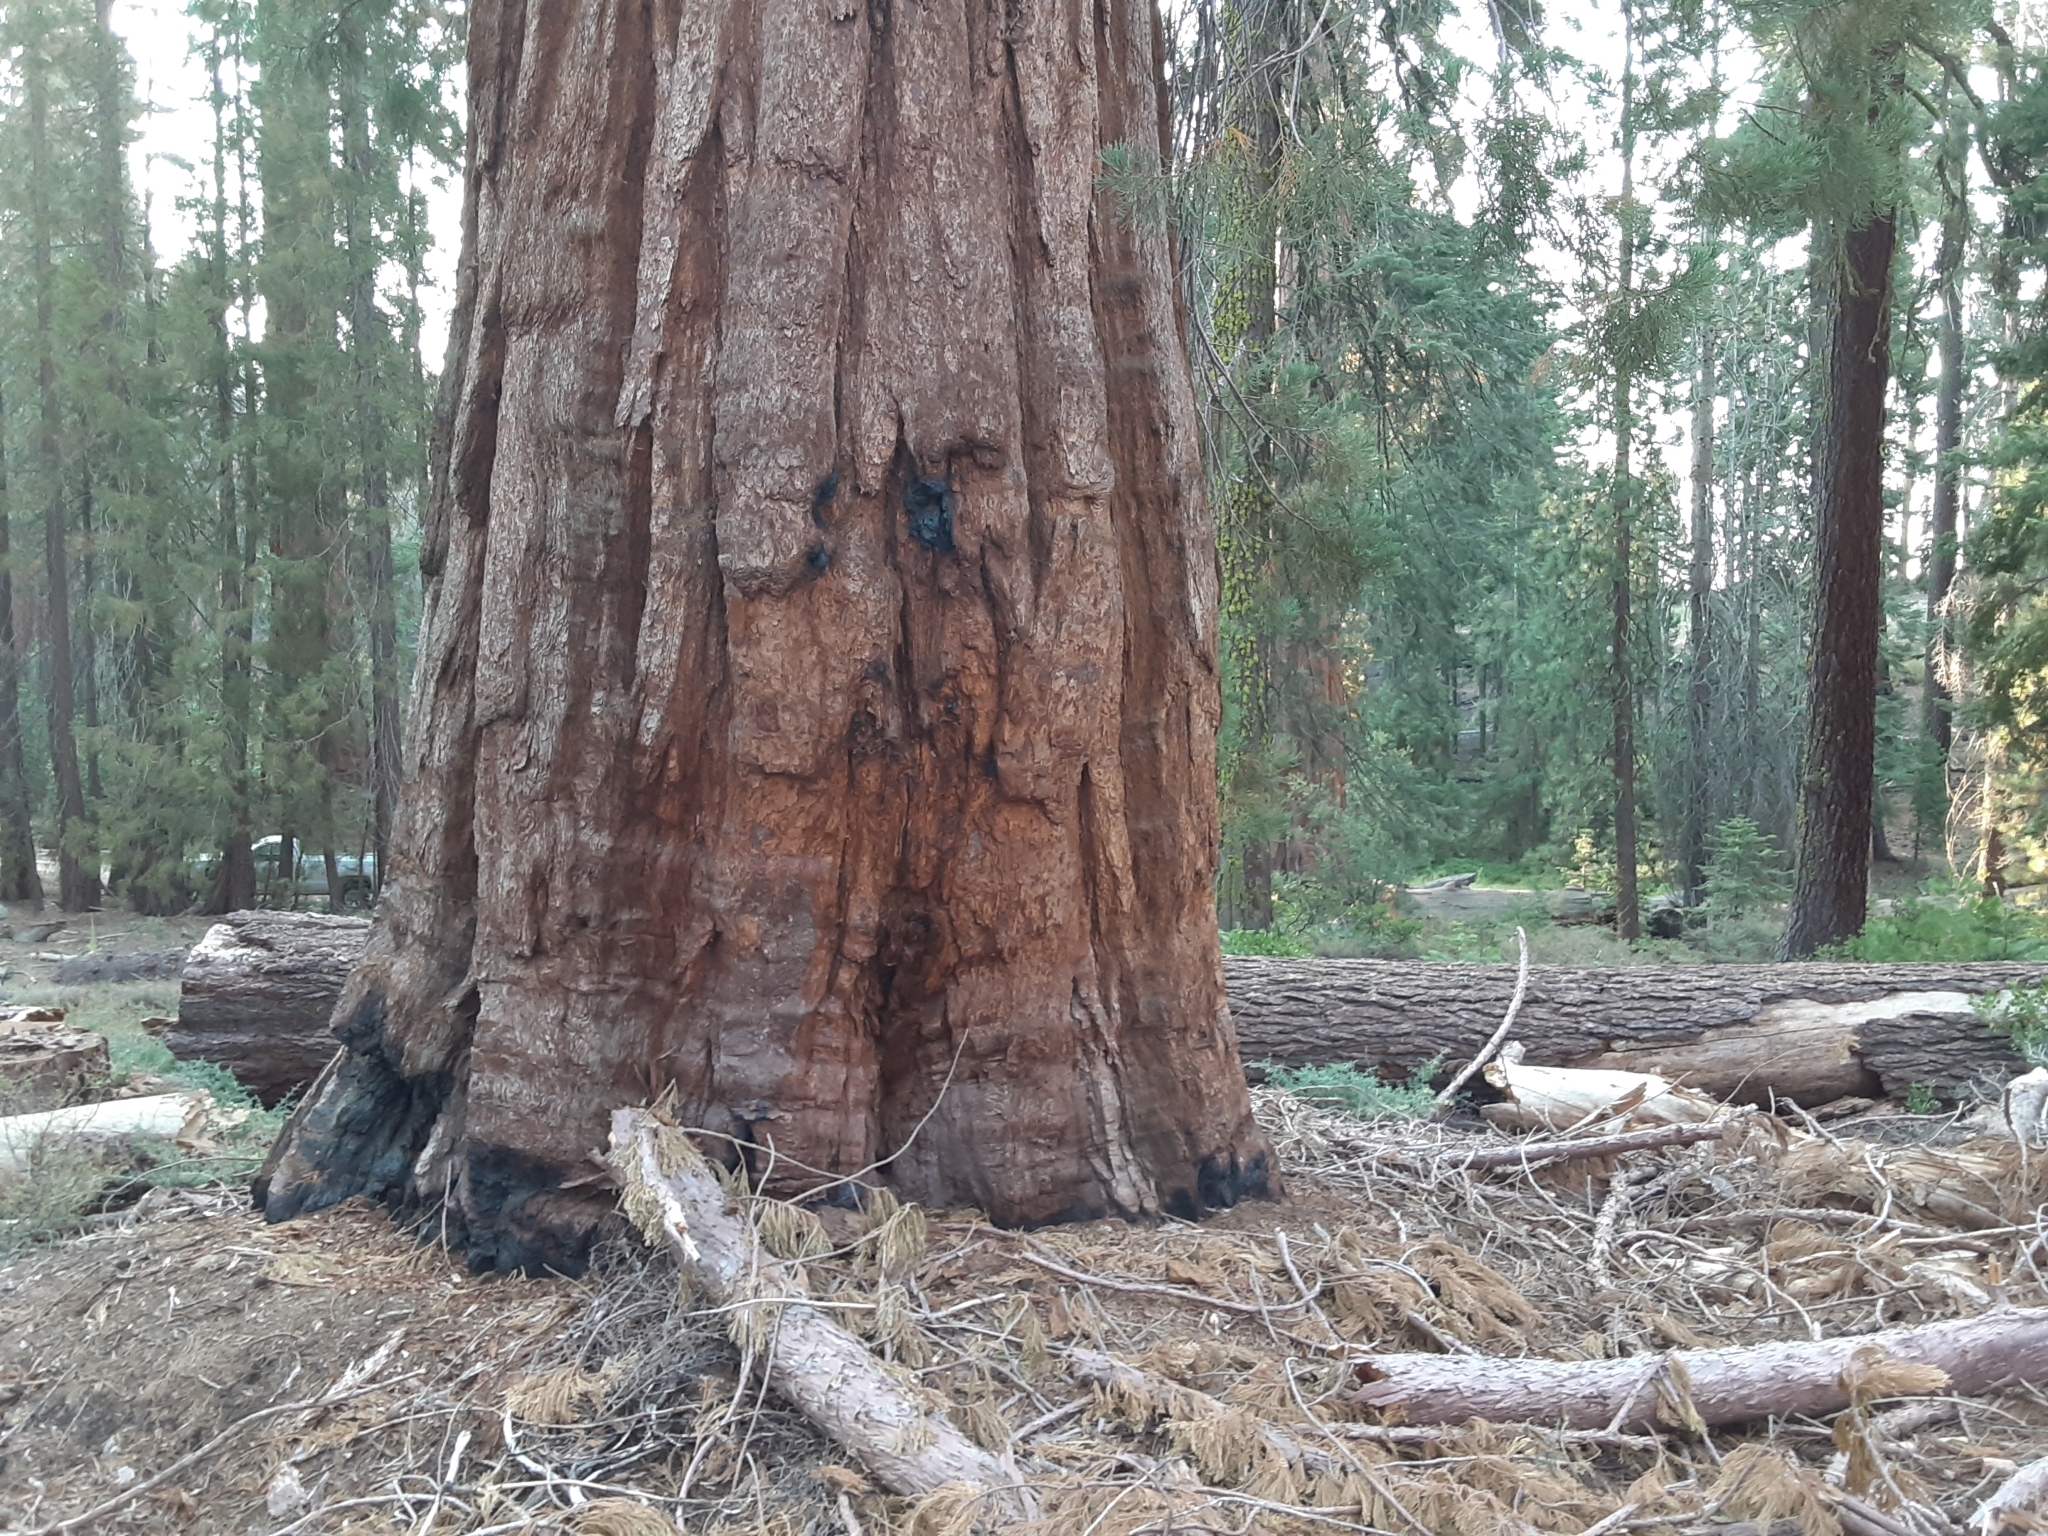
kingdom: Plantae
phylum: Tracheophyta
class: Pinopsida
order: Pinales
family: Cupressaceae
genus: Sequoiadendron
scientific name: Sequoiadendron giganteum
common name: Wellingtonia
